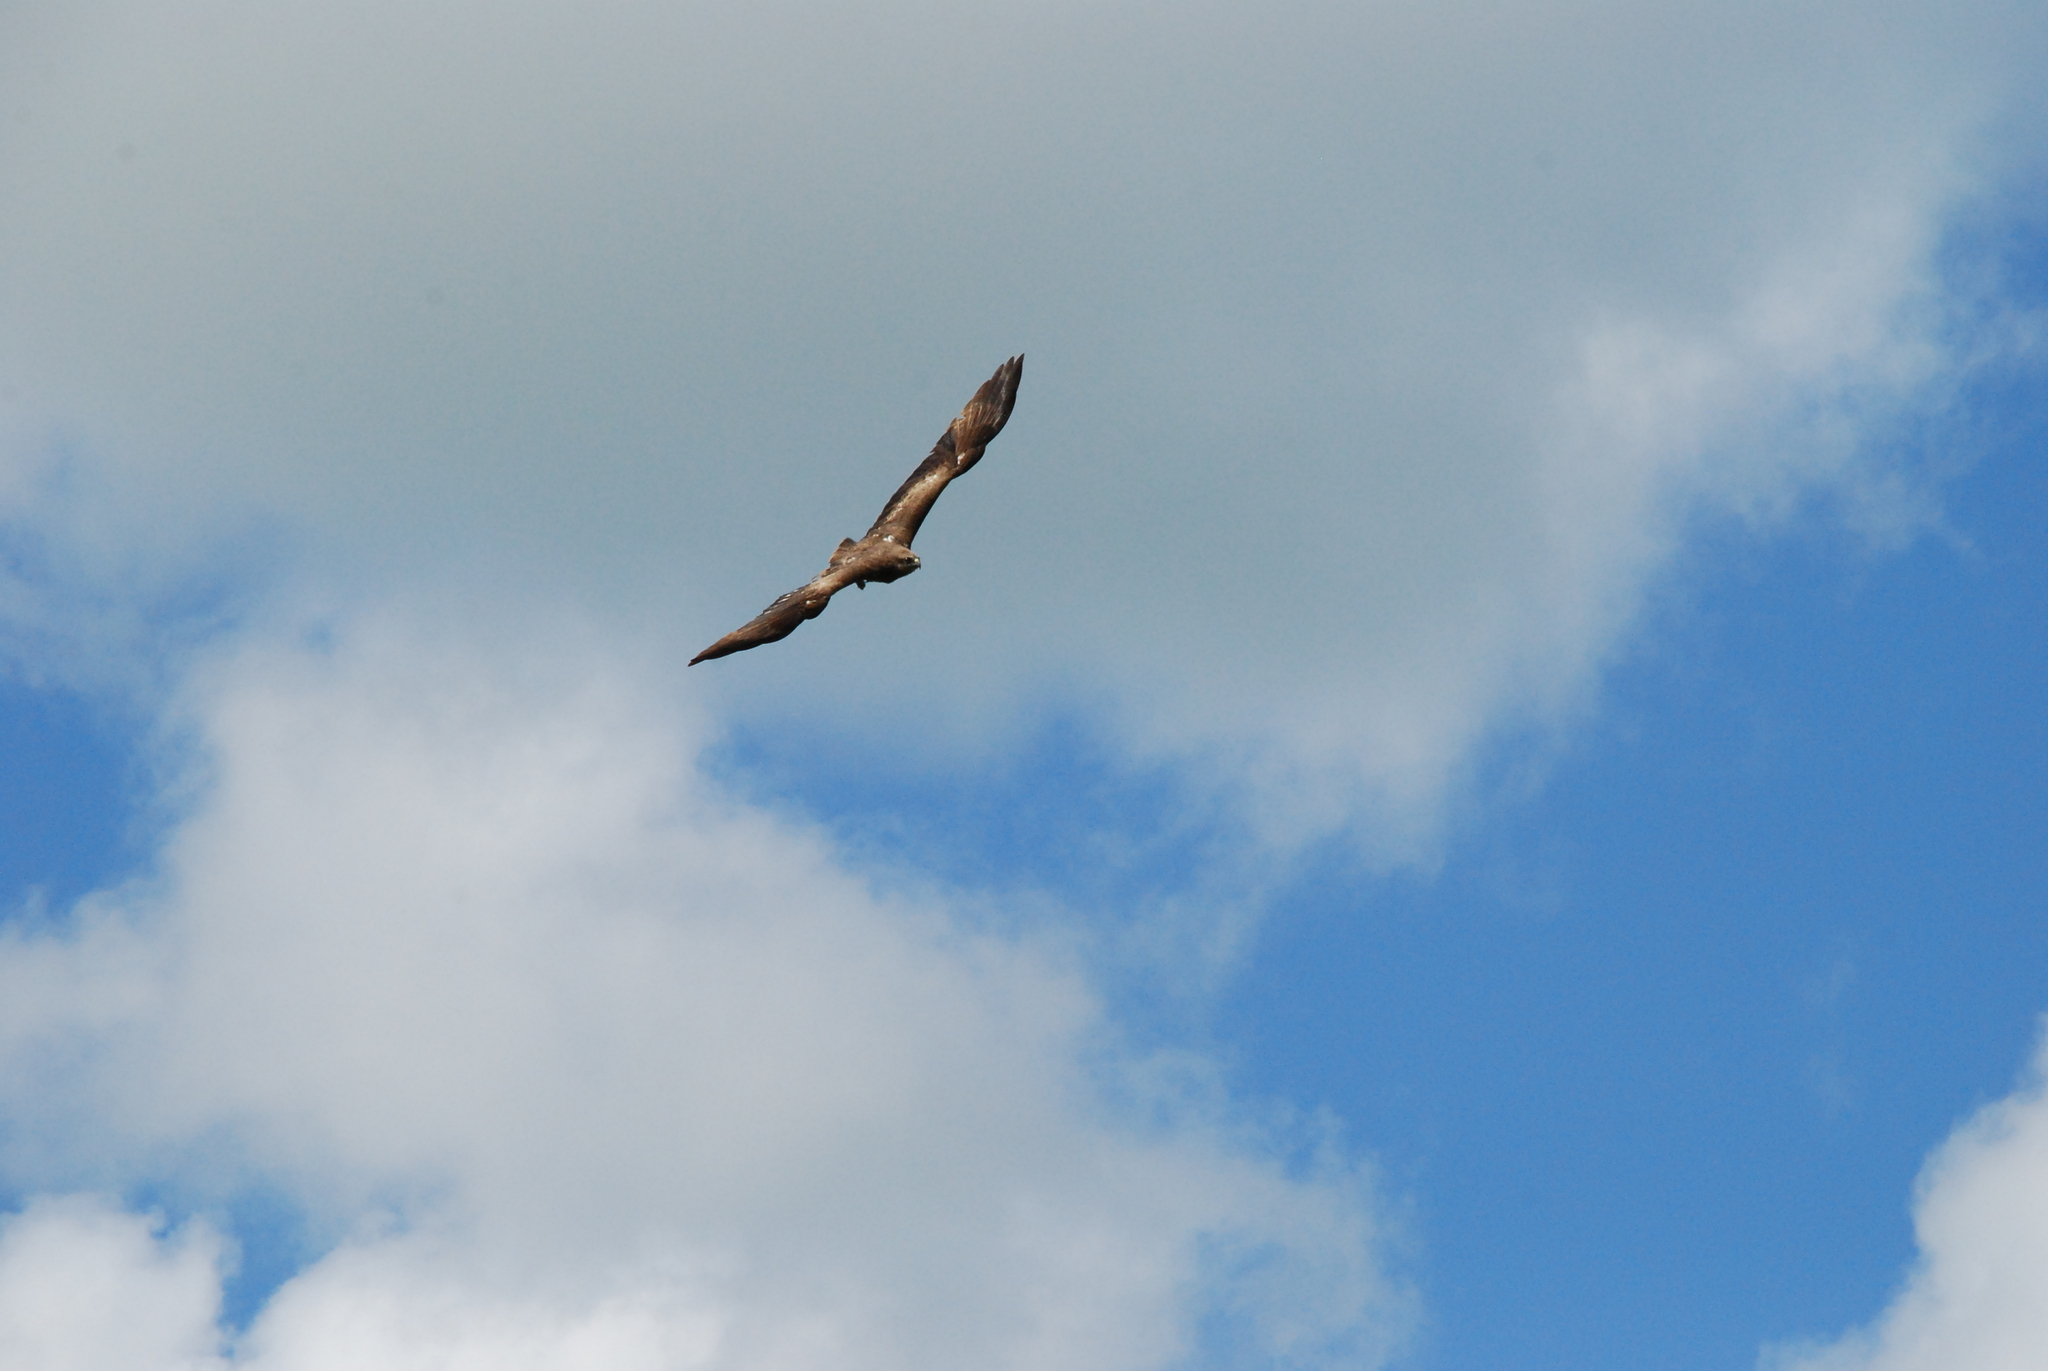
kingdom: Animalia
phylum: Chordata
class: Aves
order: Accipitriformes
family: Accipitridae
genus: Milvus
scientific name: Milvus migrans
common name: Black kite
